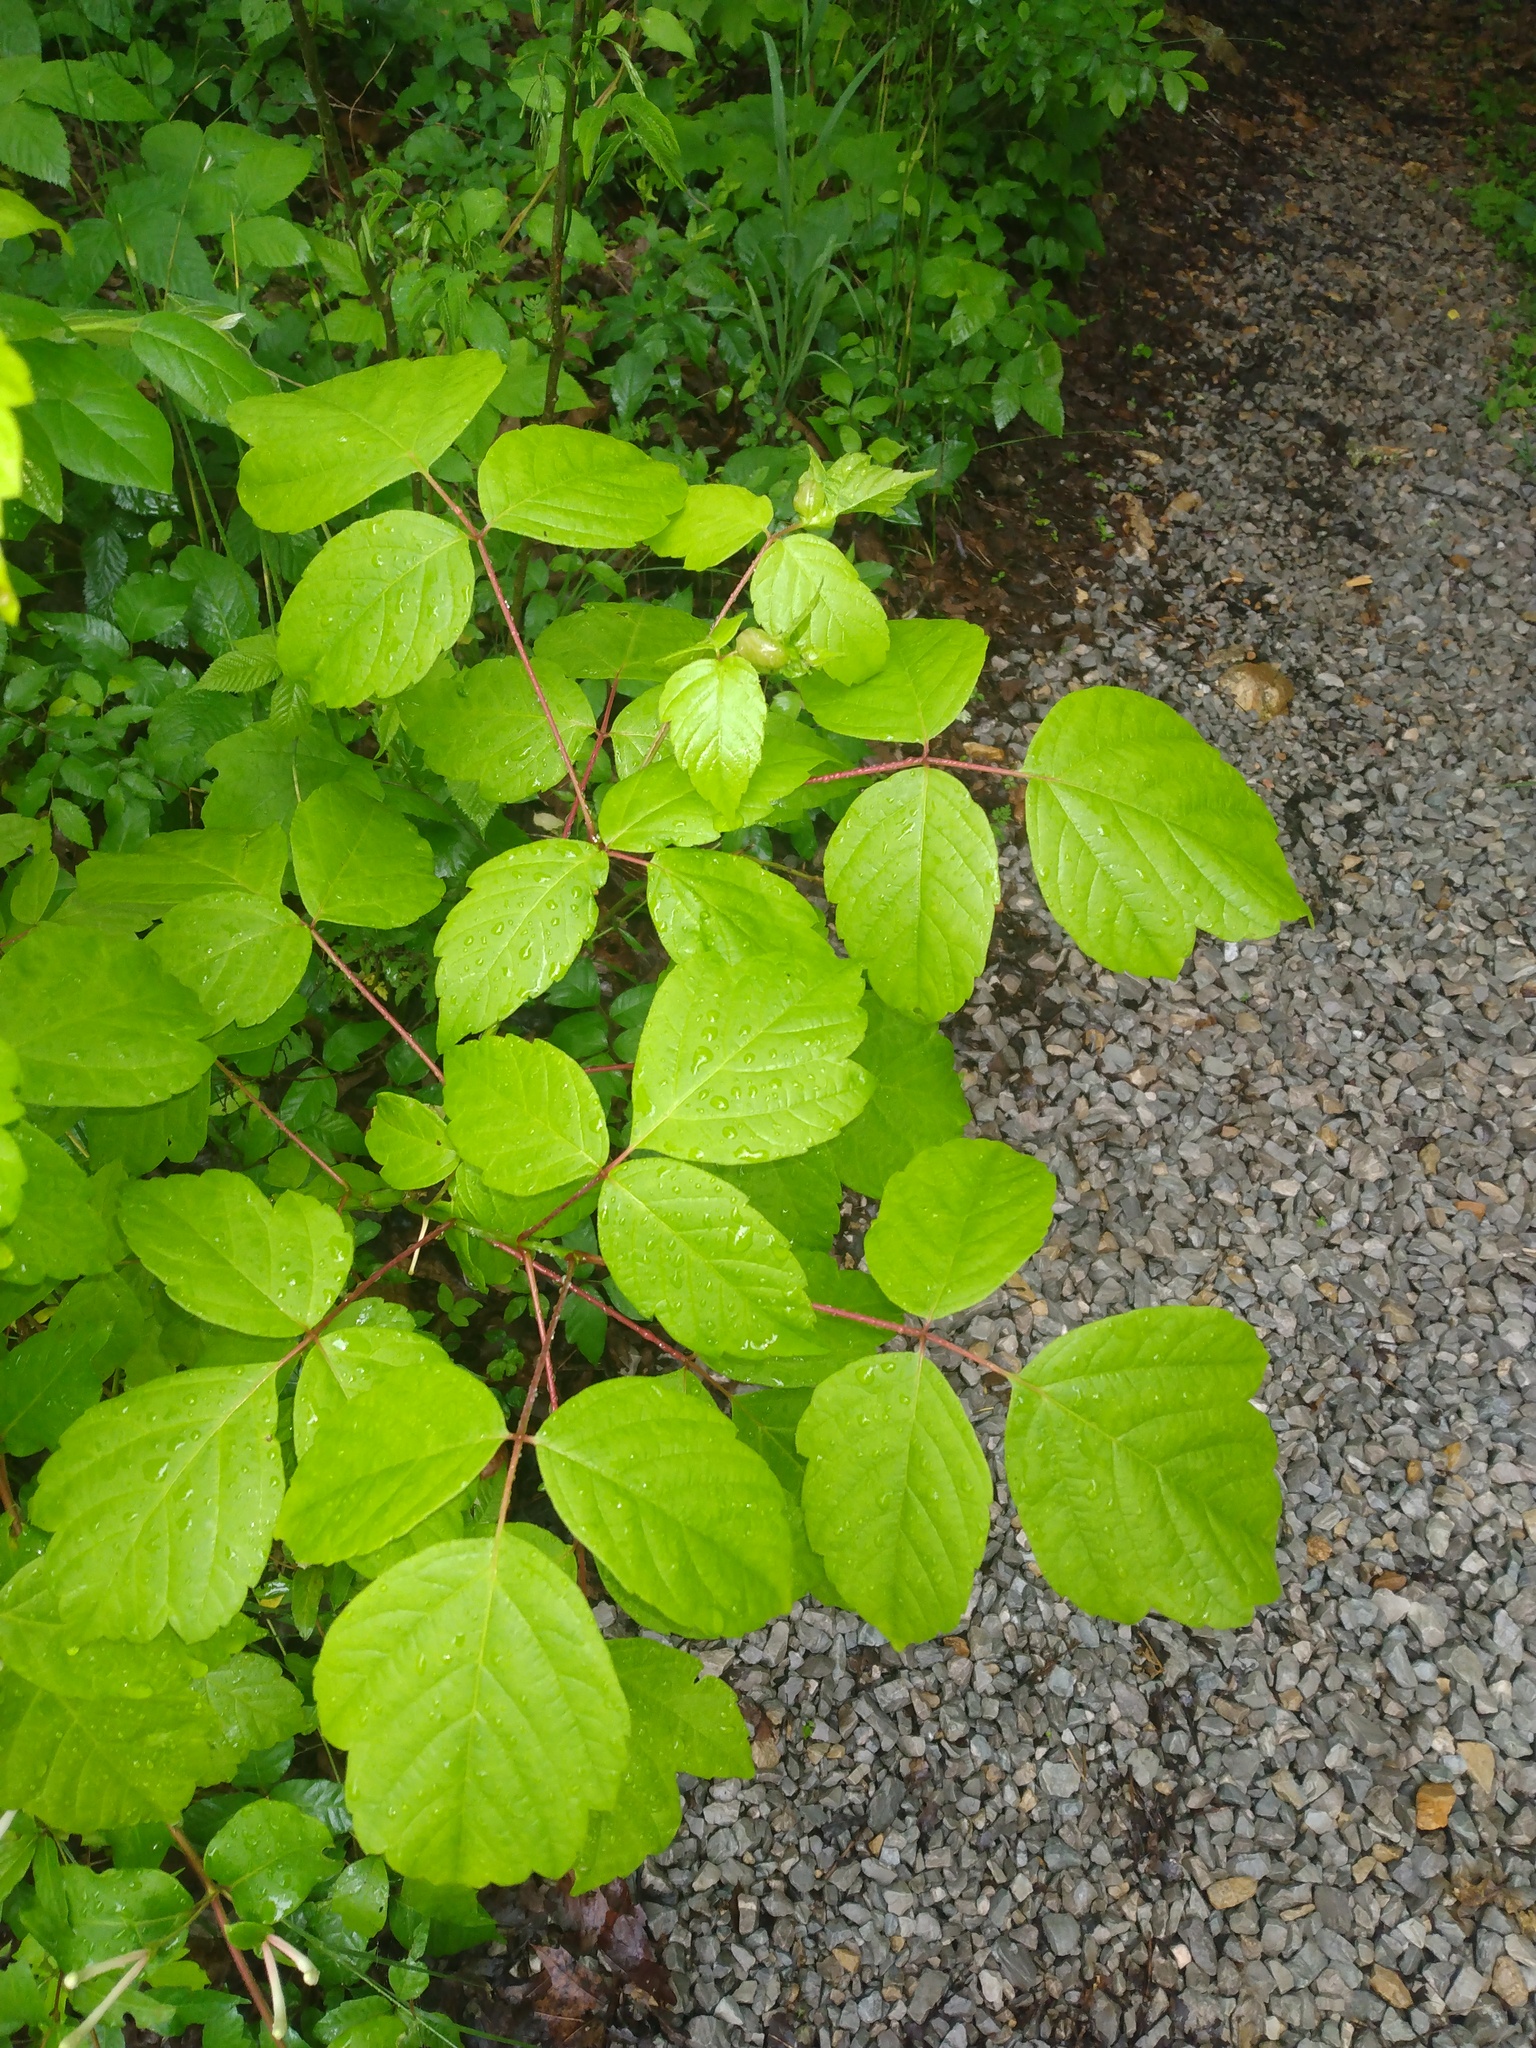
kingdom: Plantae
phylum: Tracheophyta
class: Magnoliopsida
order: Sapindales
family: Sapindaceae
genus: Acer
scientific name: Acer negundo
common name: Ashleaf maple
